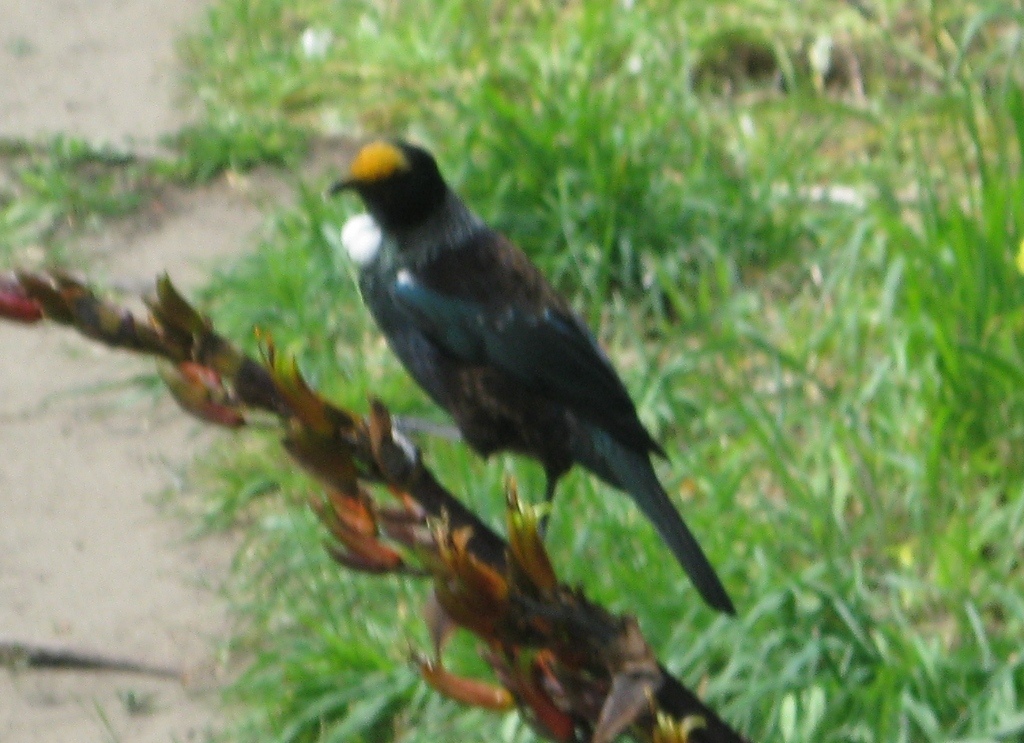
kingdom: Animalia
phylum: Chordata
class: Aves
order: Passeriformes
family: Meliphagidae
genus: Prosthemadera
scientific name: Prosthemadera novaeseelandiae
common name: Tui
